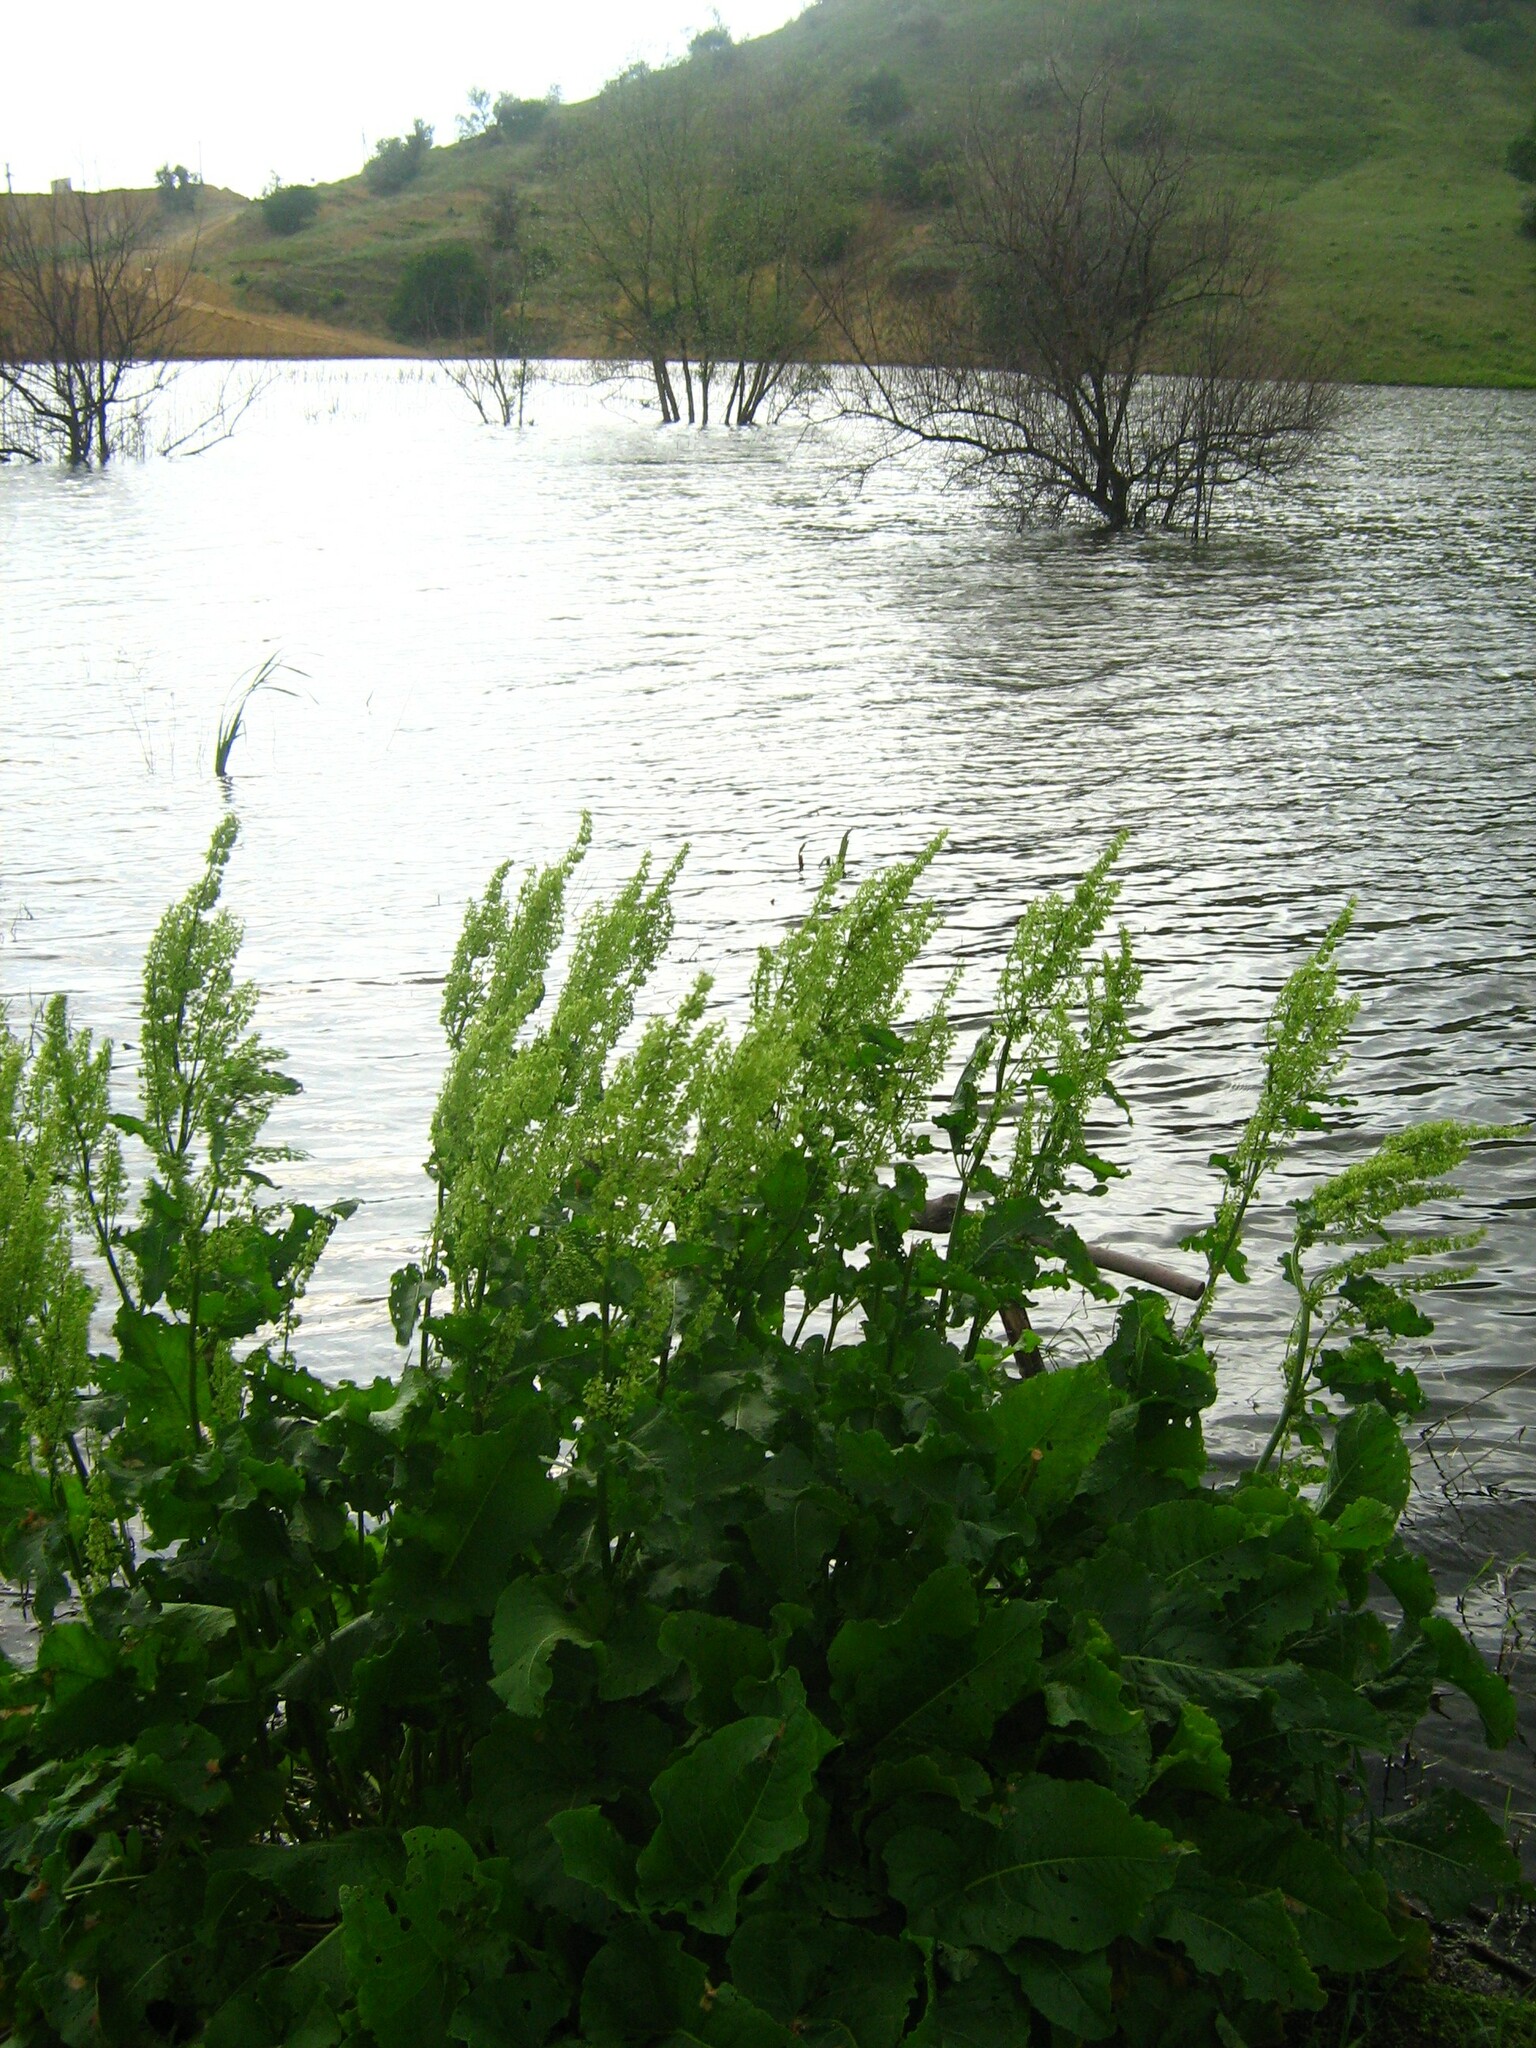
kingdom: Plantae
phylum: Tracheophyta
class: Magnoliopsida
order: Caryophyllales
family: Polygonaceae
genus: Rumex
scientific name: Rumex confertus
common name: Russian dock
